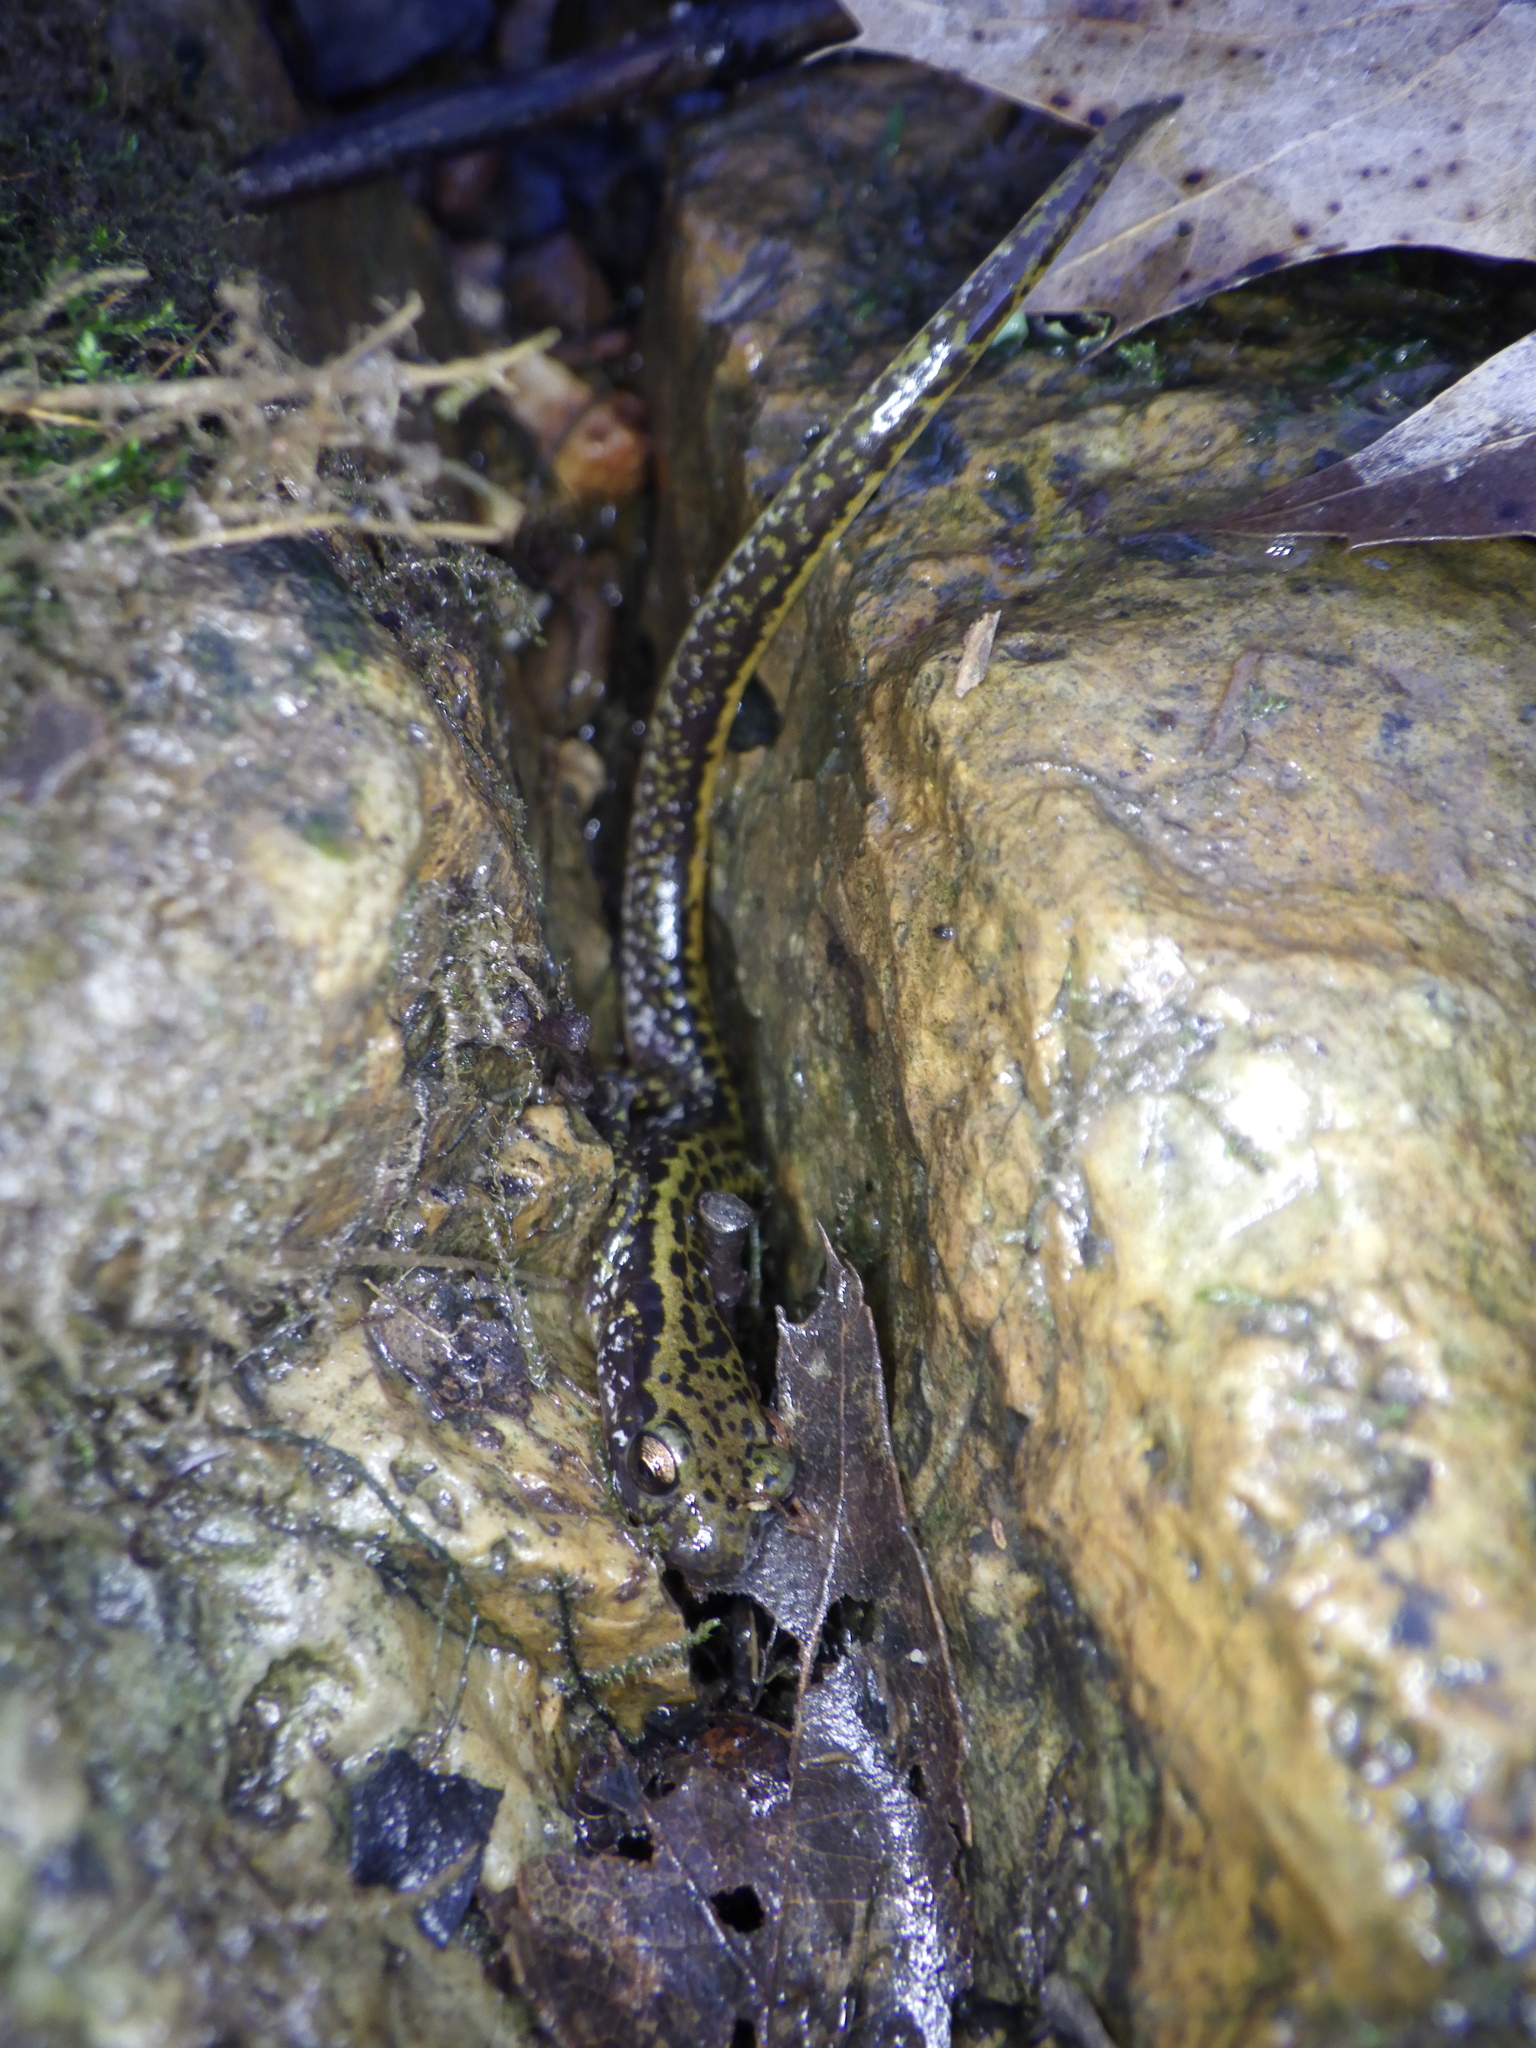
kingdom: Animalia
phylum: Chordata
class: Amphibia
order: Caudata
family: Plethodontidae
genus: Eurycea
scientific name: Eurycea longicauda
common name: Long-tailed salamander
